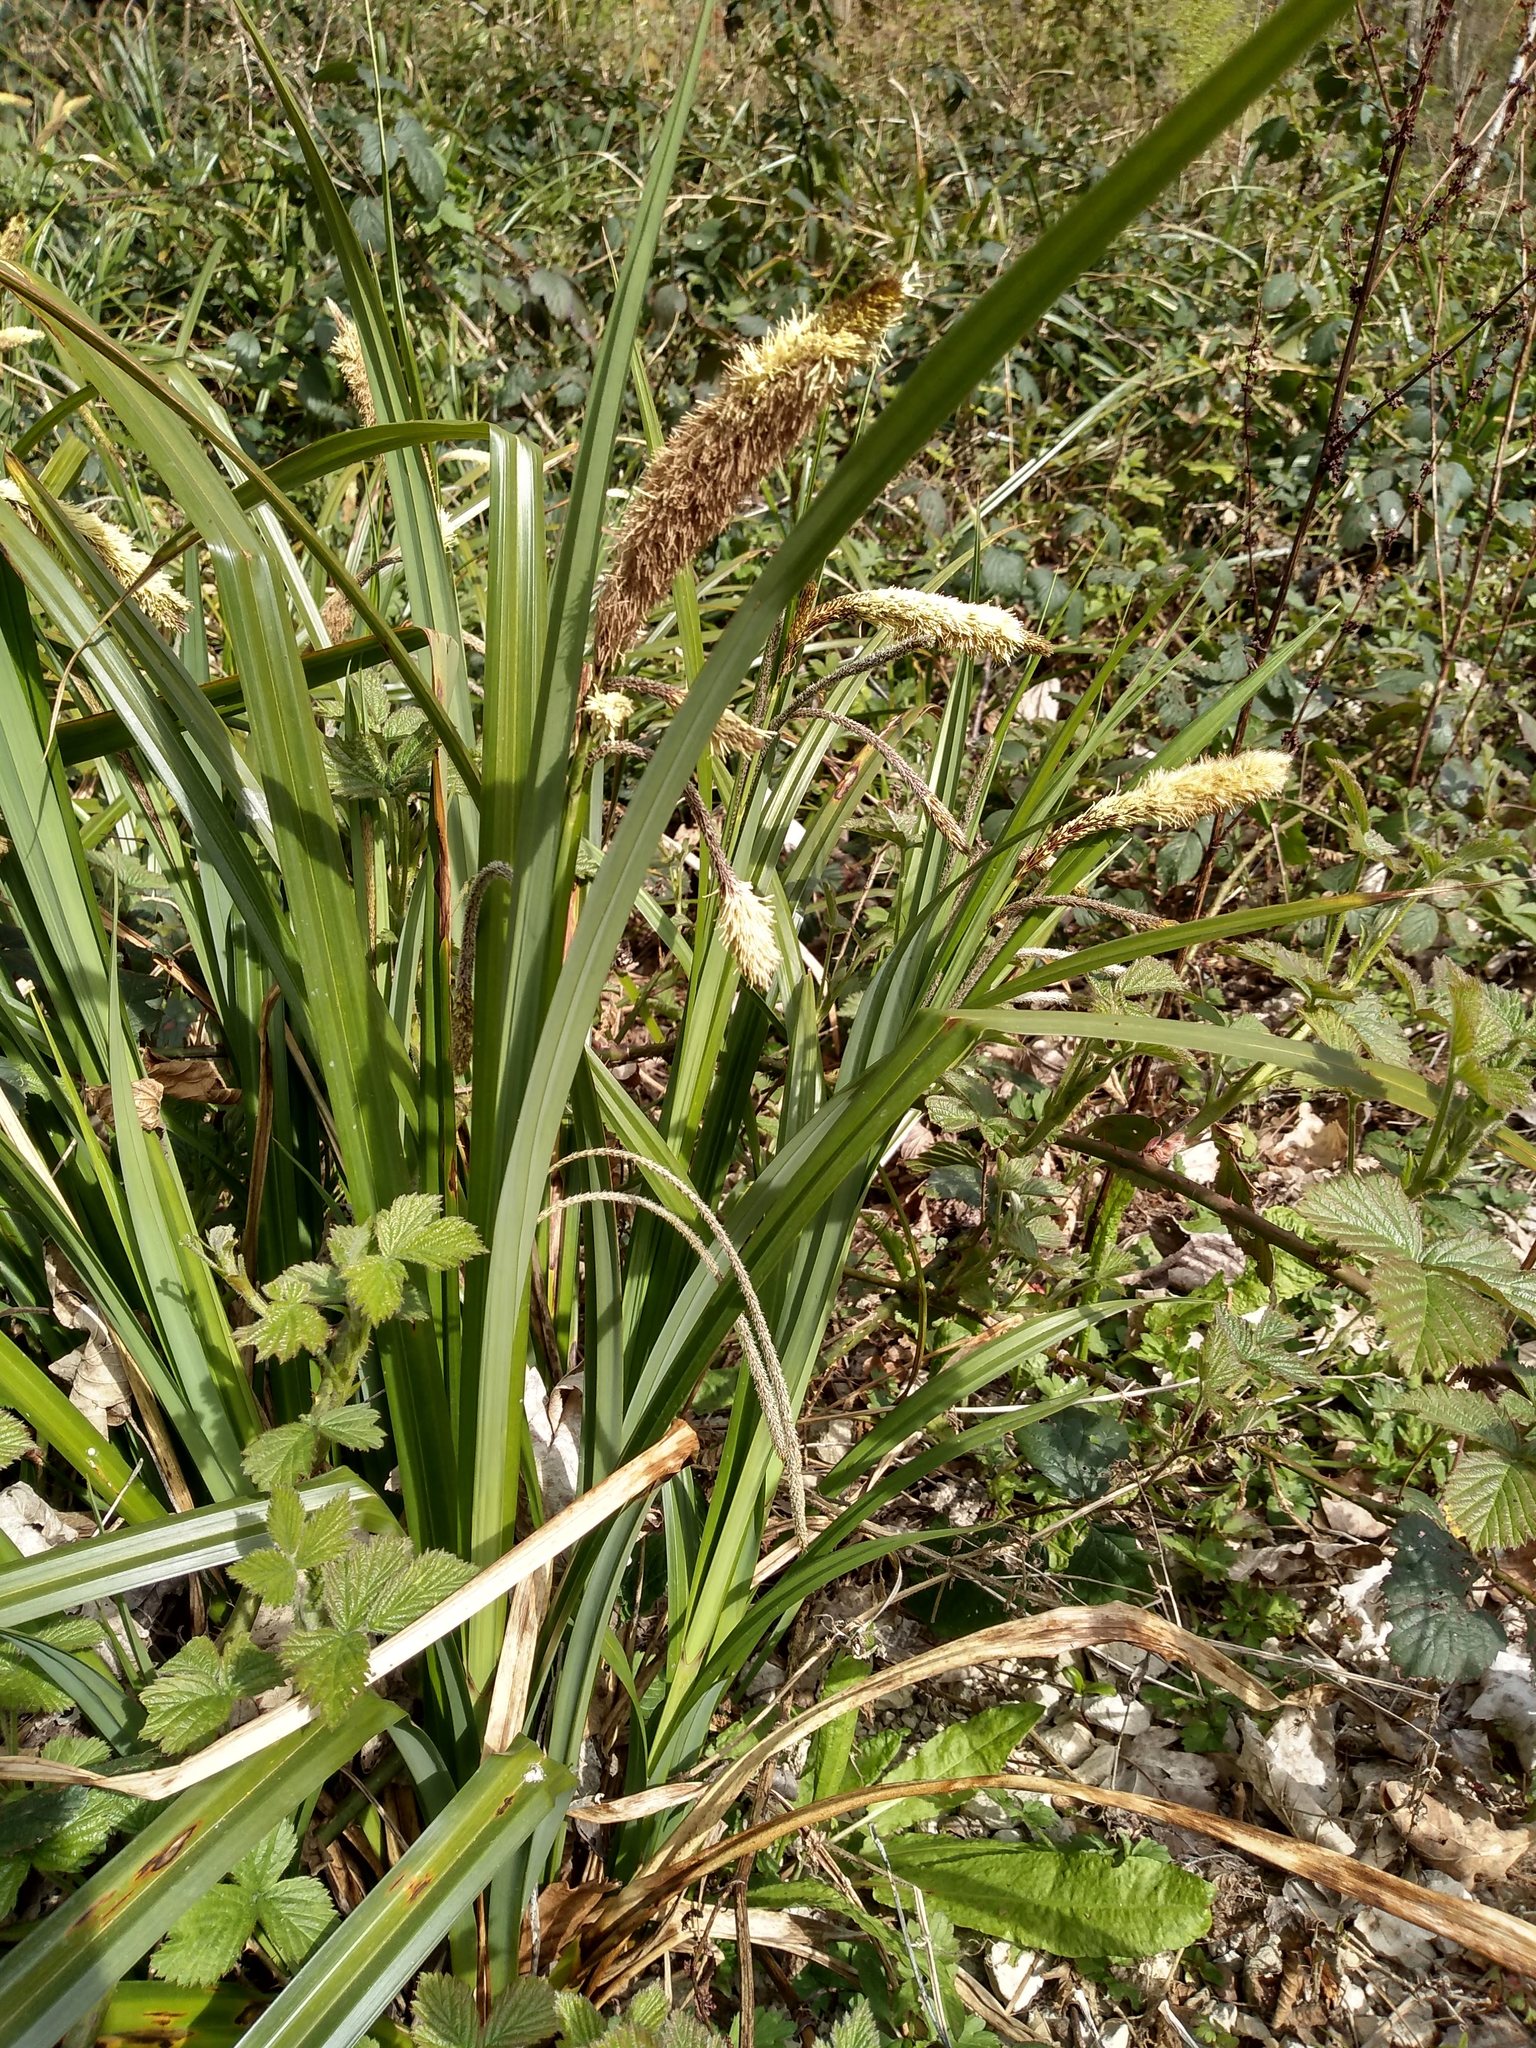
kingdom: Plantae
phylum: Tracheophyta
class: Liliopsida
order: Poales
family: Cyperaceae
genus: Carex
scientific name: Carex pendula
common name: Pendulous sedge
